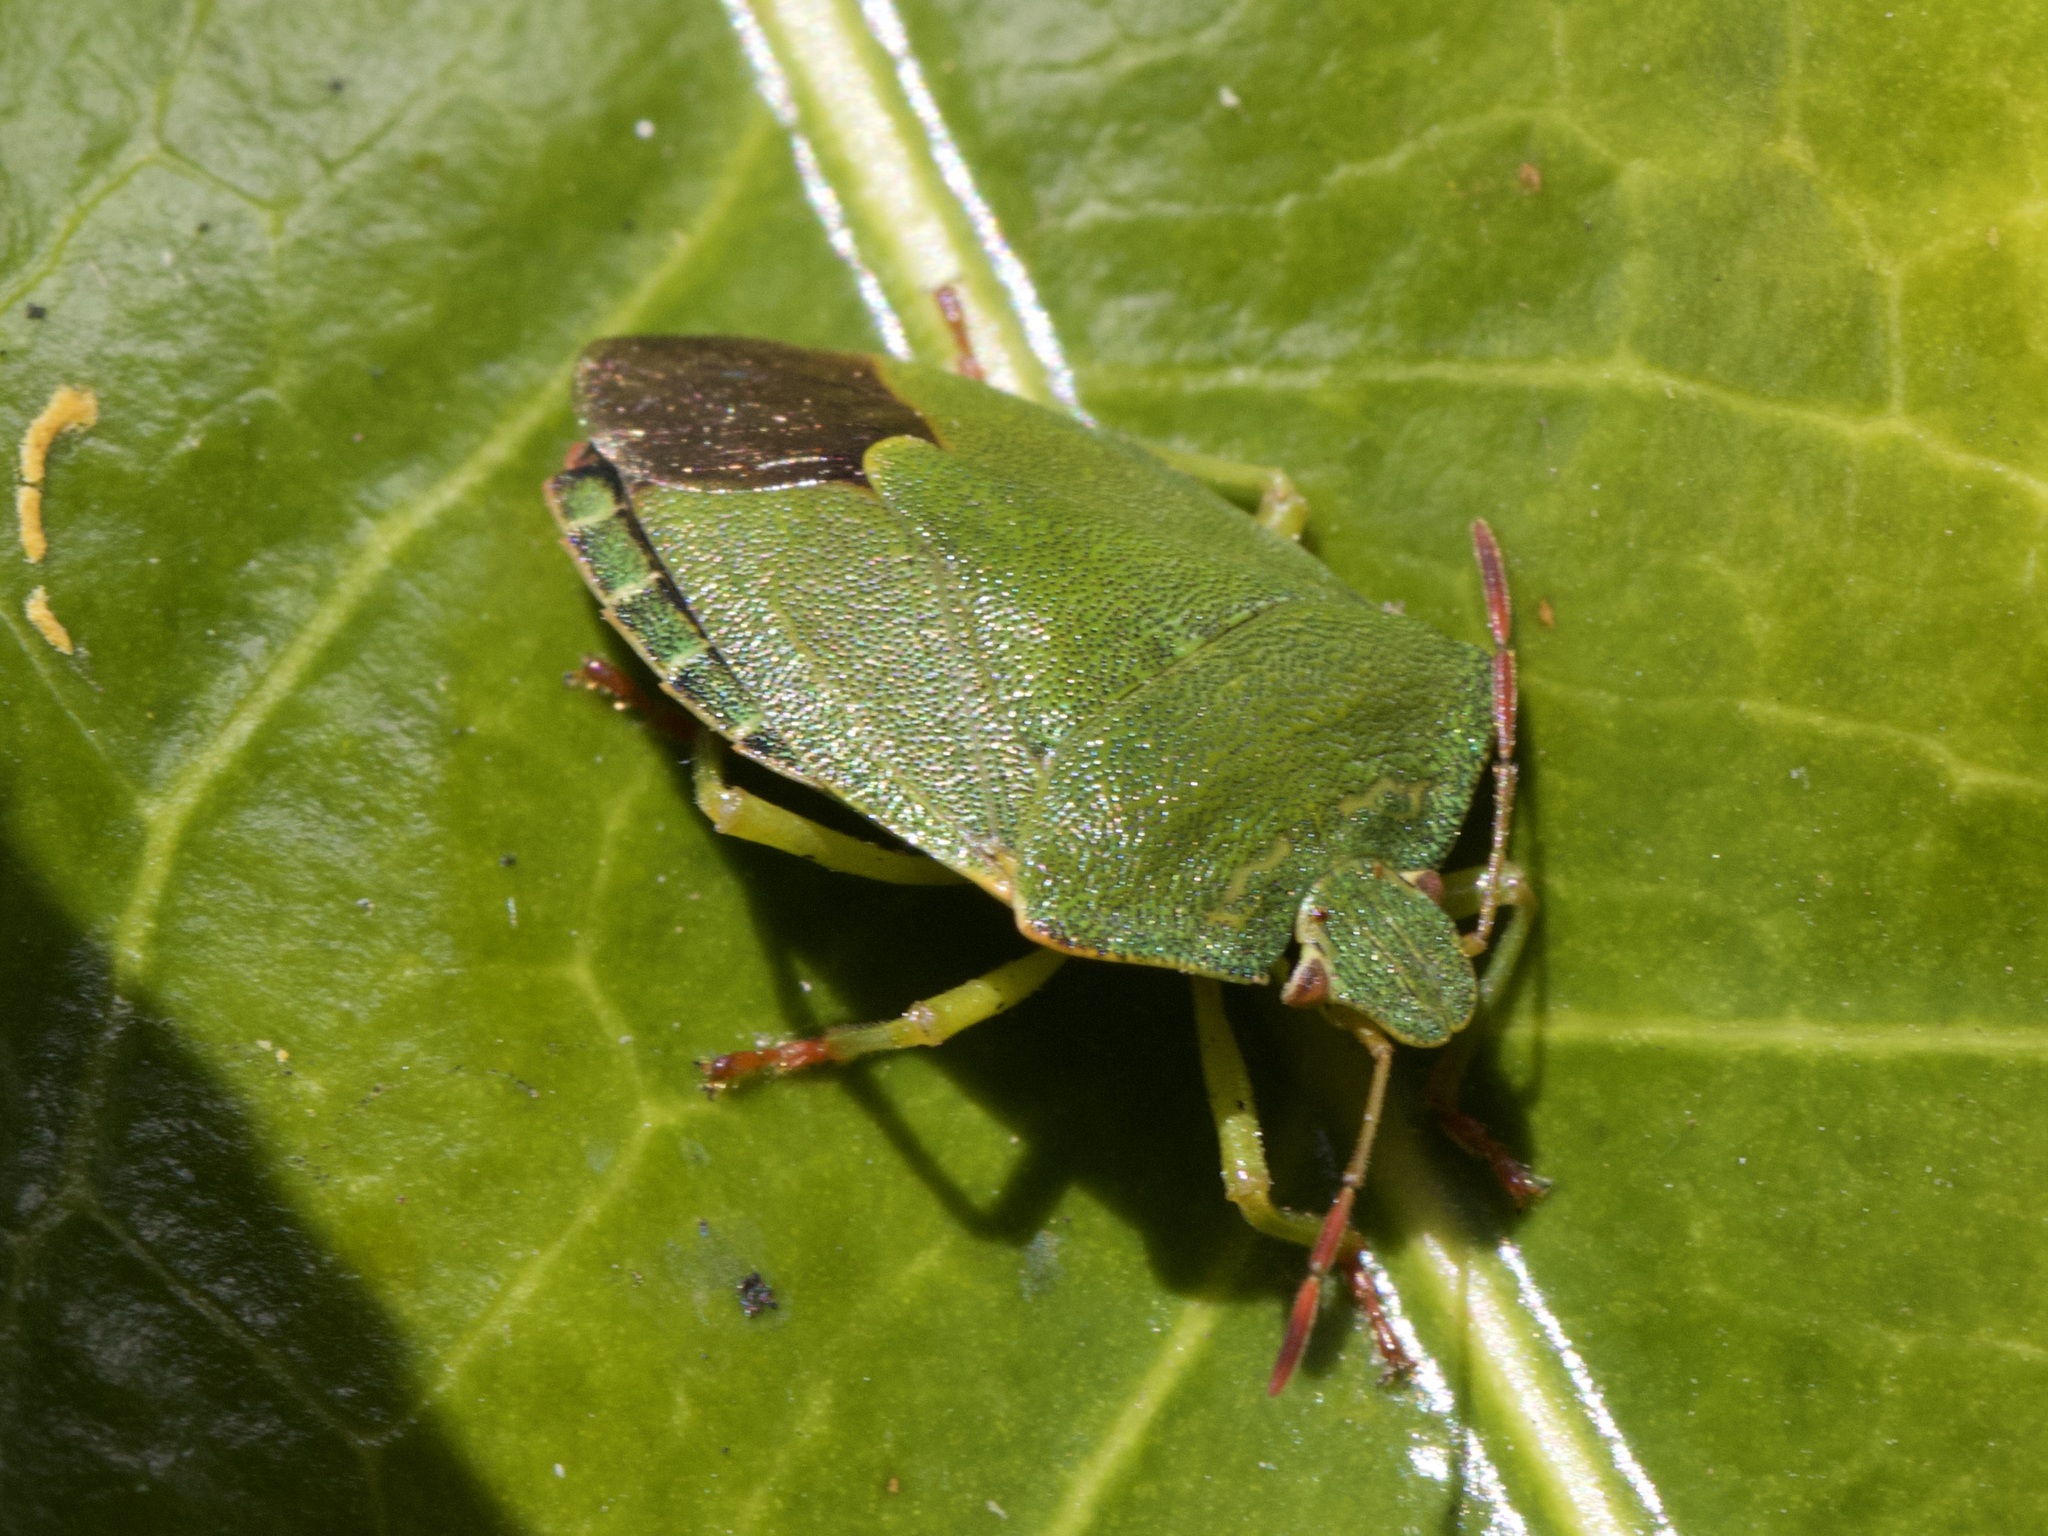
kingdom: Animalia
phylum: Arthropoda
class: Insecta
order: Hemiptera
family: Pentatomidae
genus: Palomena
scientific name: Palomena prasina
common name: Green shieldbug
